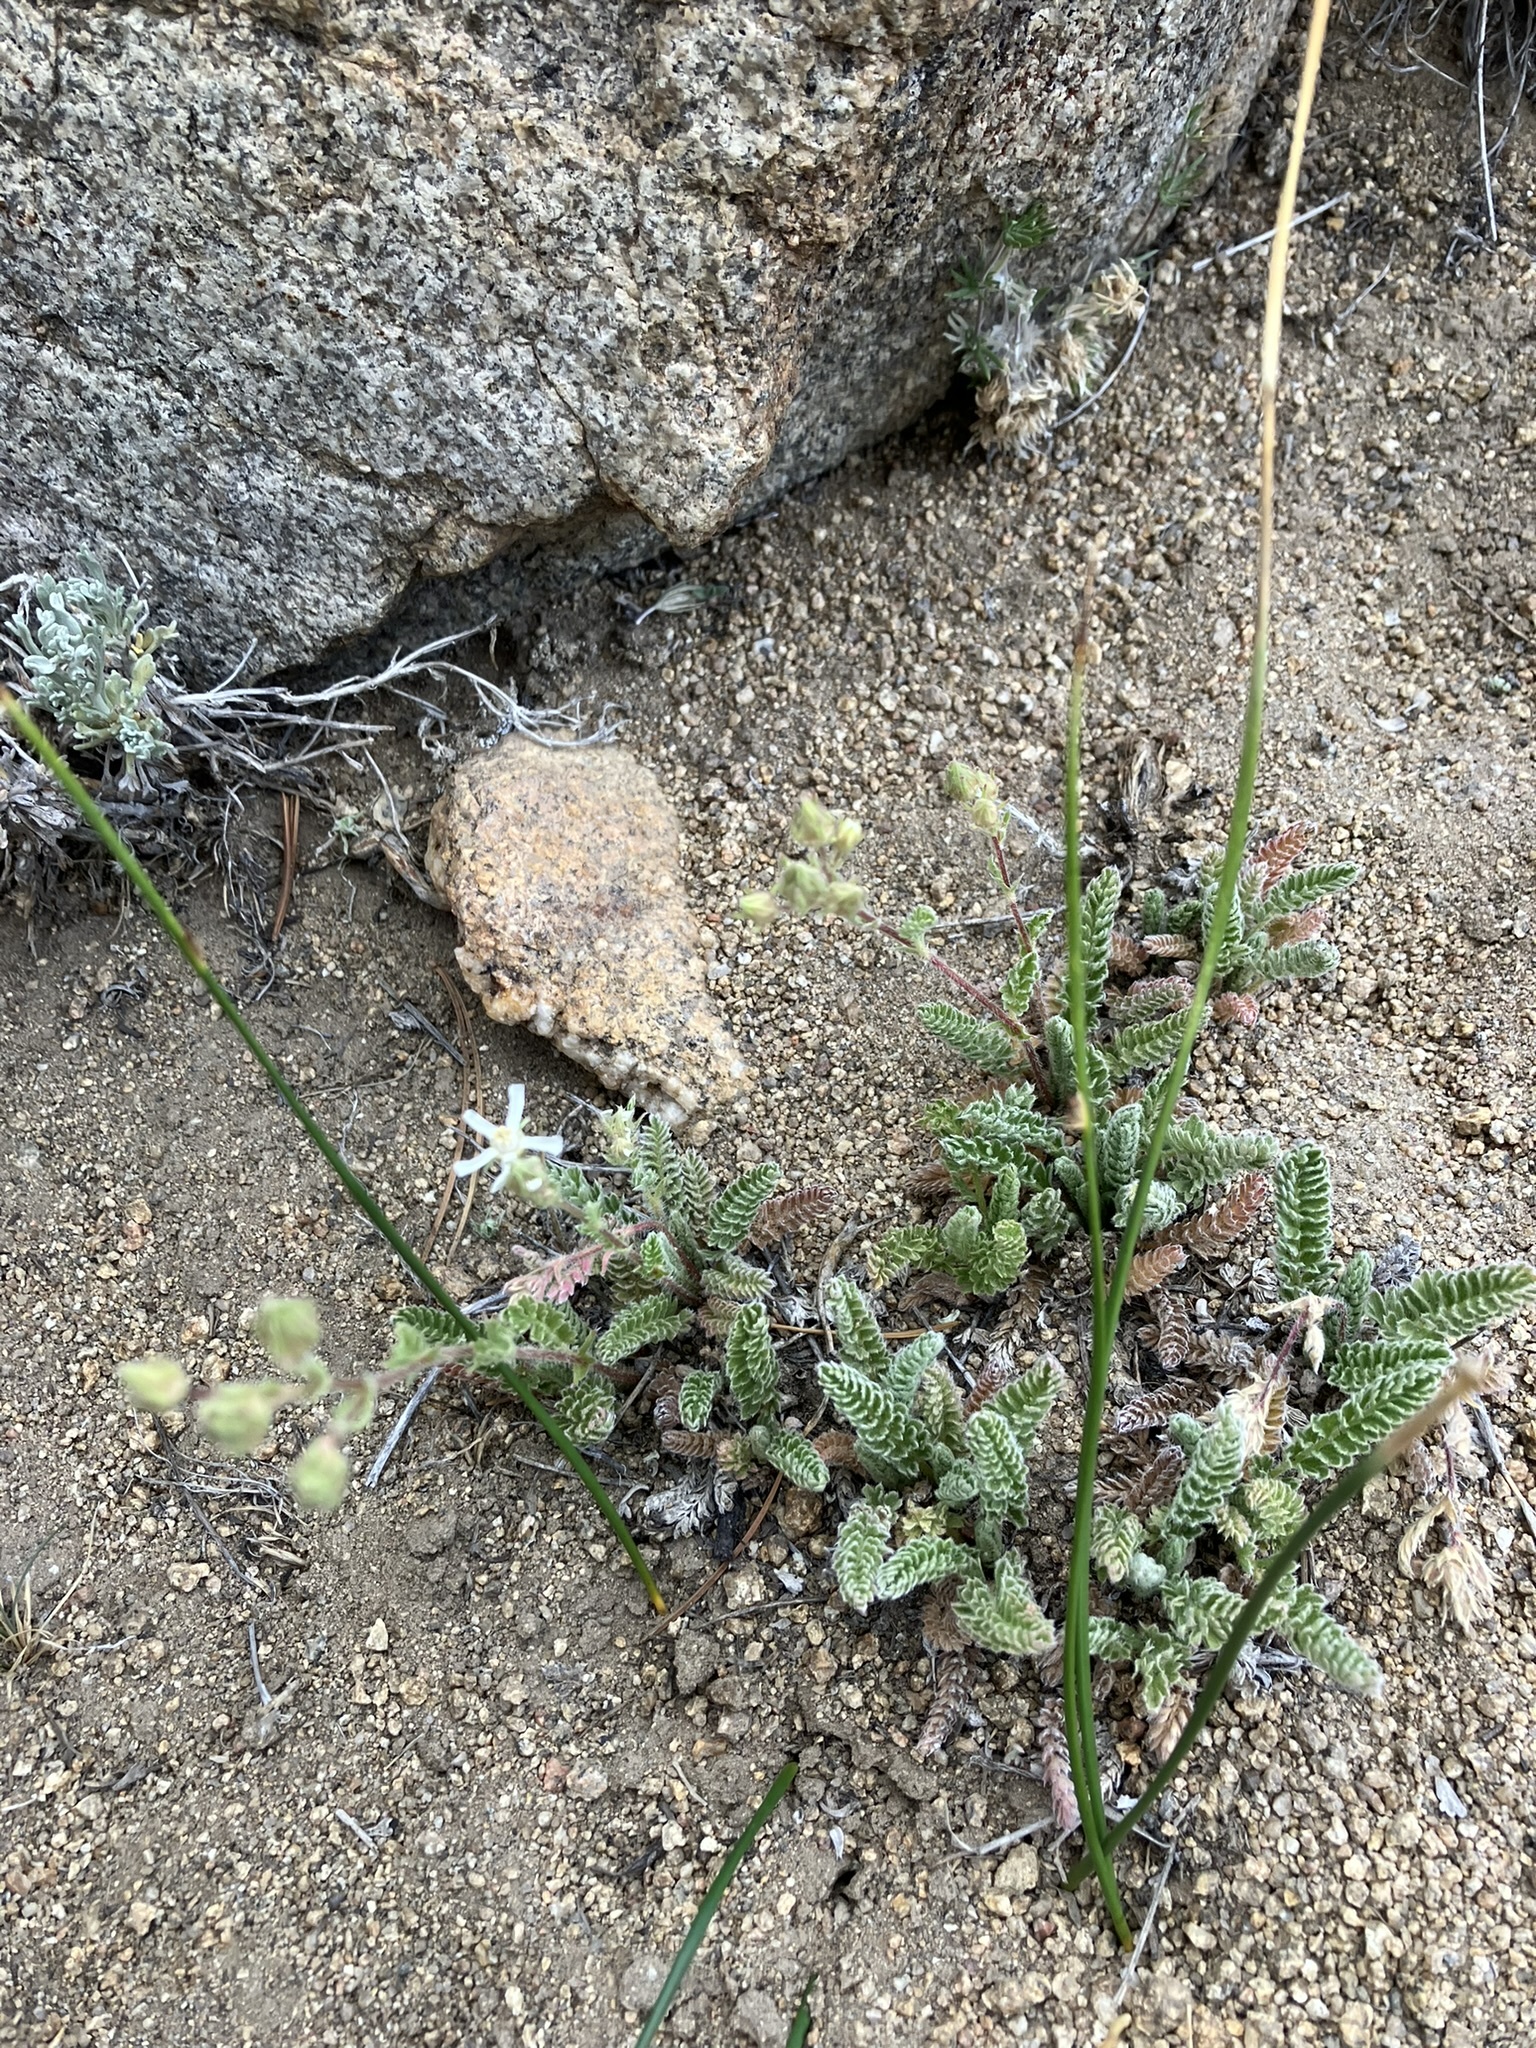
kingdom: Plantae
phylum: Tracheophyta
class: Magnoliopsida
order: Rosales
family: Rosaceae
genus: Potentilla
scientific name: Potentilla hispidula
